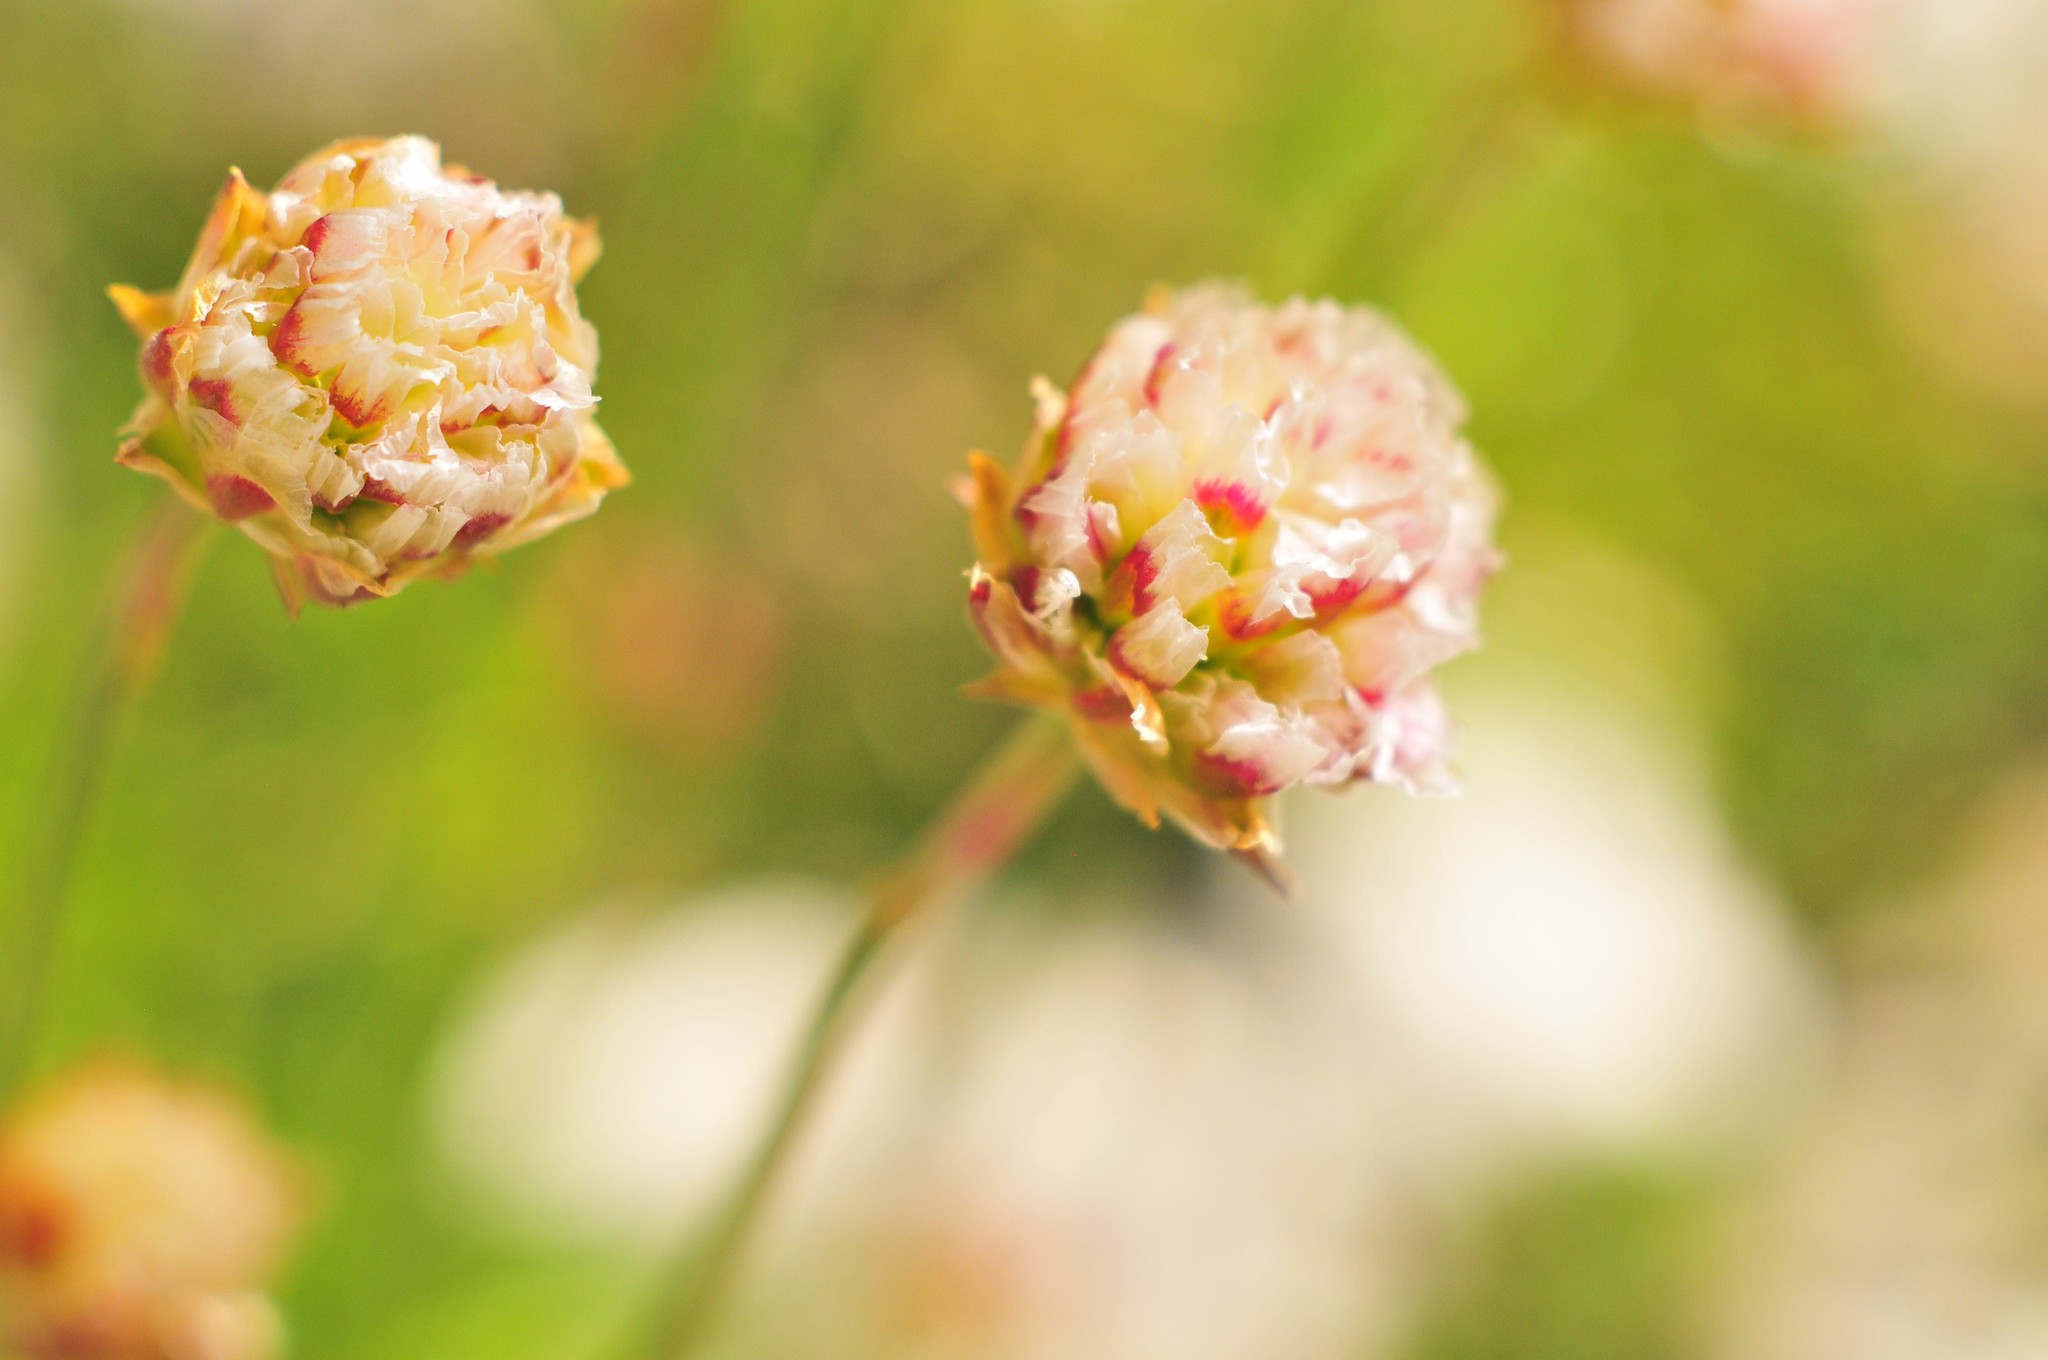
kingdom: Plantae
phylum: Tracheophyta
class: Magnoliopsida
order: Caryophyllales
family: Plumbaginaceae
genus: Armeria
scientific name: Armeria alpina
